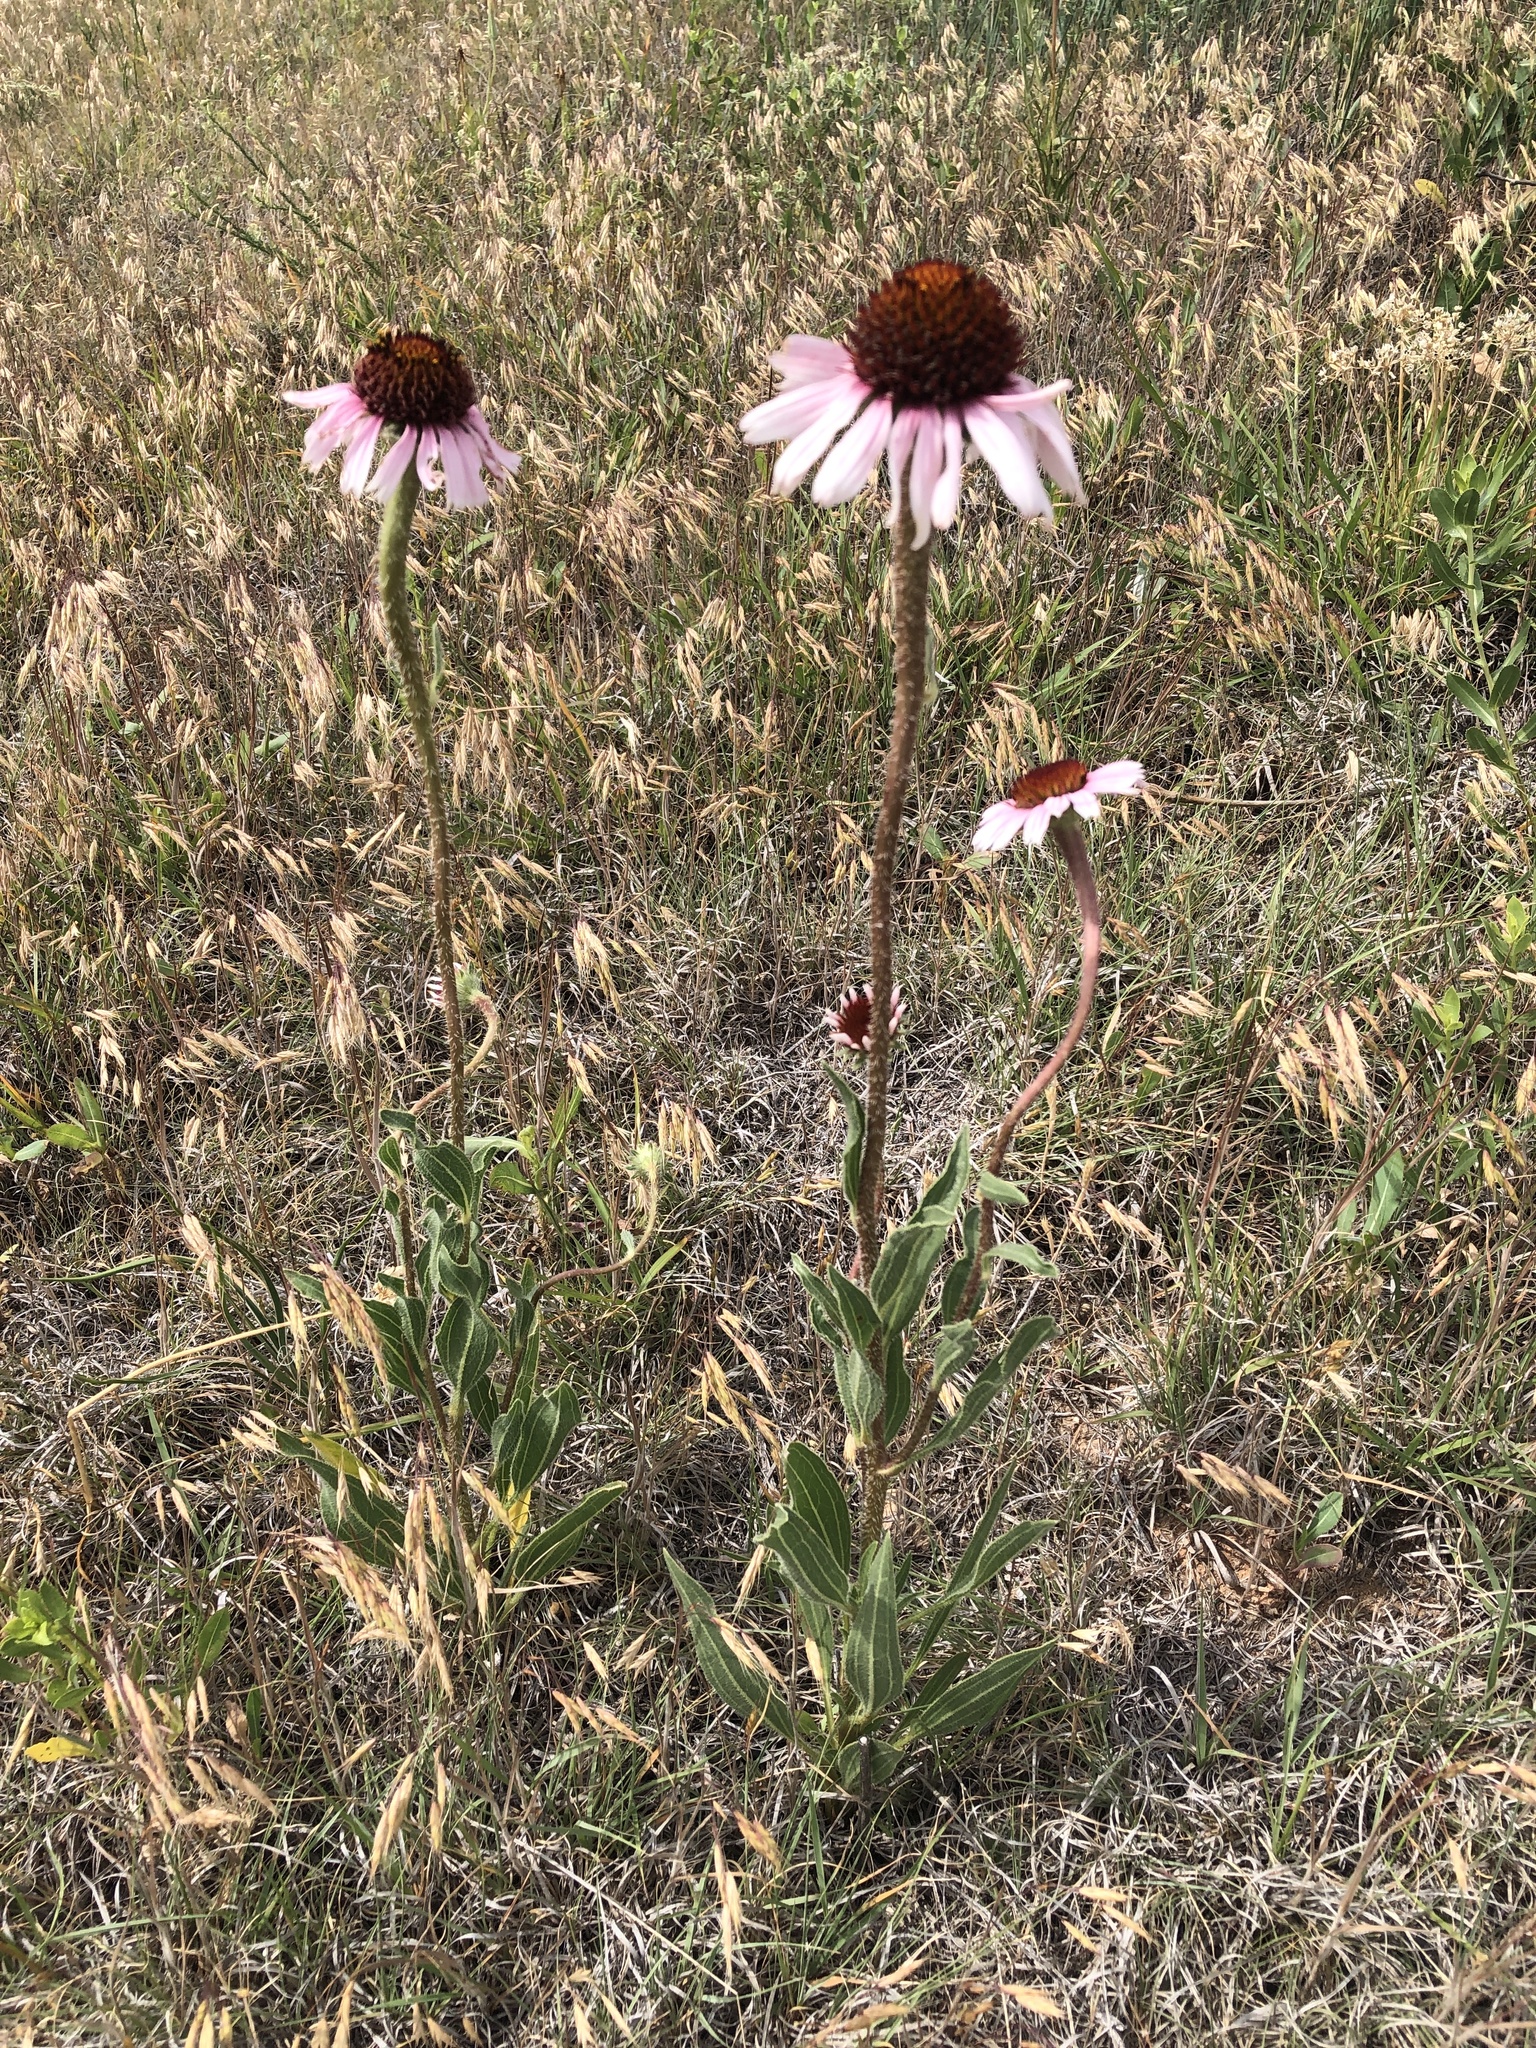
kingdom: Plantae
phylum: Tracheophyta
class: Magnoliopsida
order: Asterales
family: Asteraceae
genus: Echinacea
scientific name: Echinacea angustifolia
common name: Black-sampson echinacea
